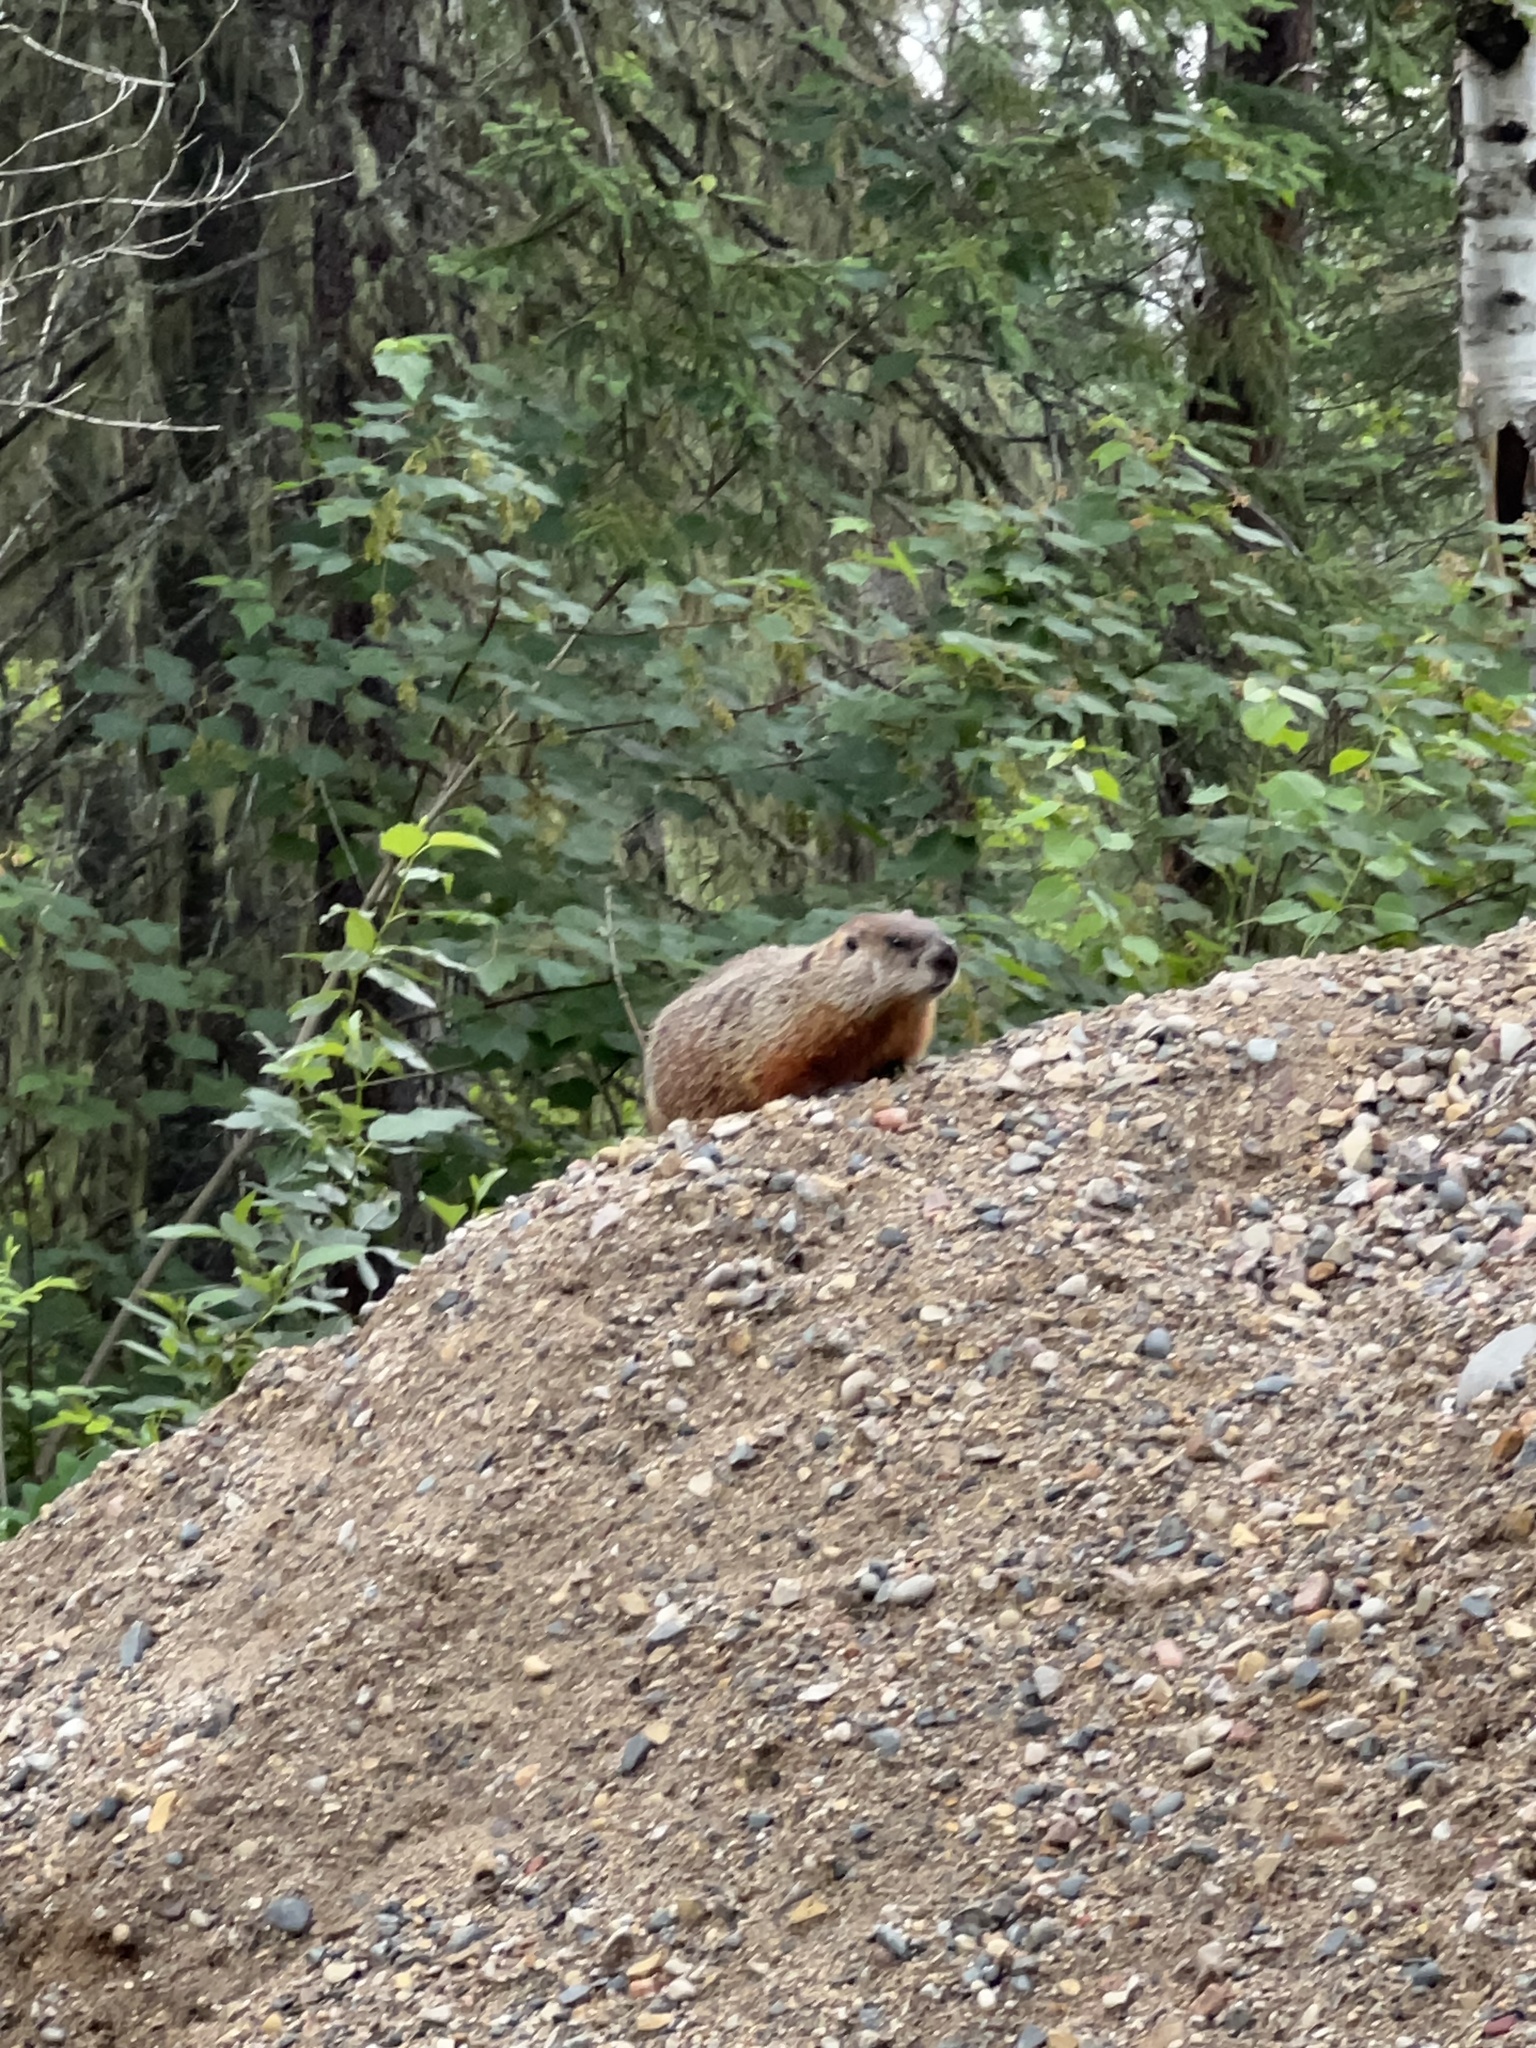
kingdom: Animalia
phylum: Chordata
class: Mammalia
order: Rodentia
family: Sciuridae
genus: Marmota
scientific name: Marmota monax
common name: Groundhog
